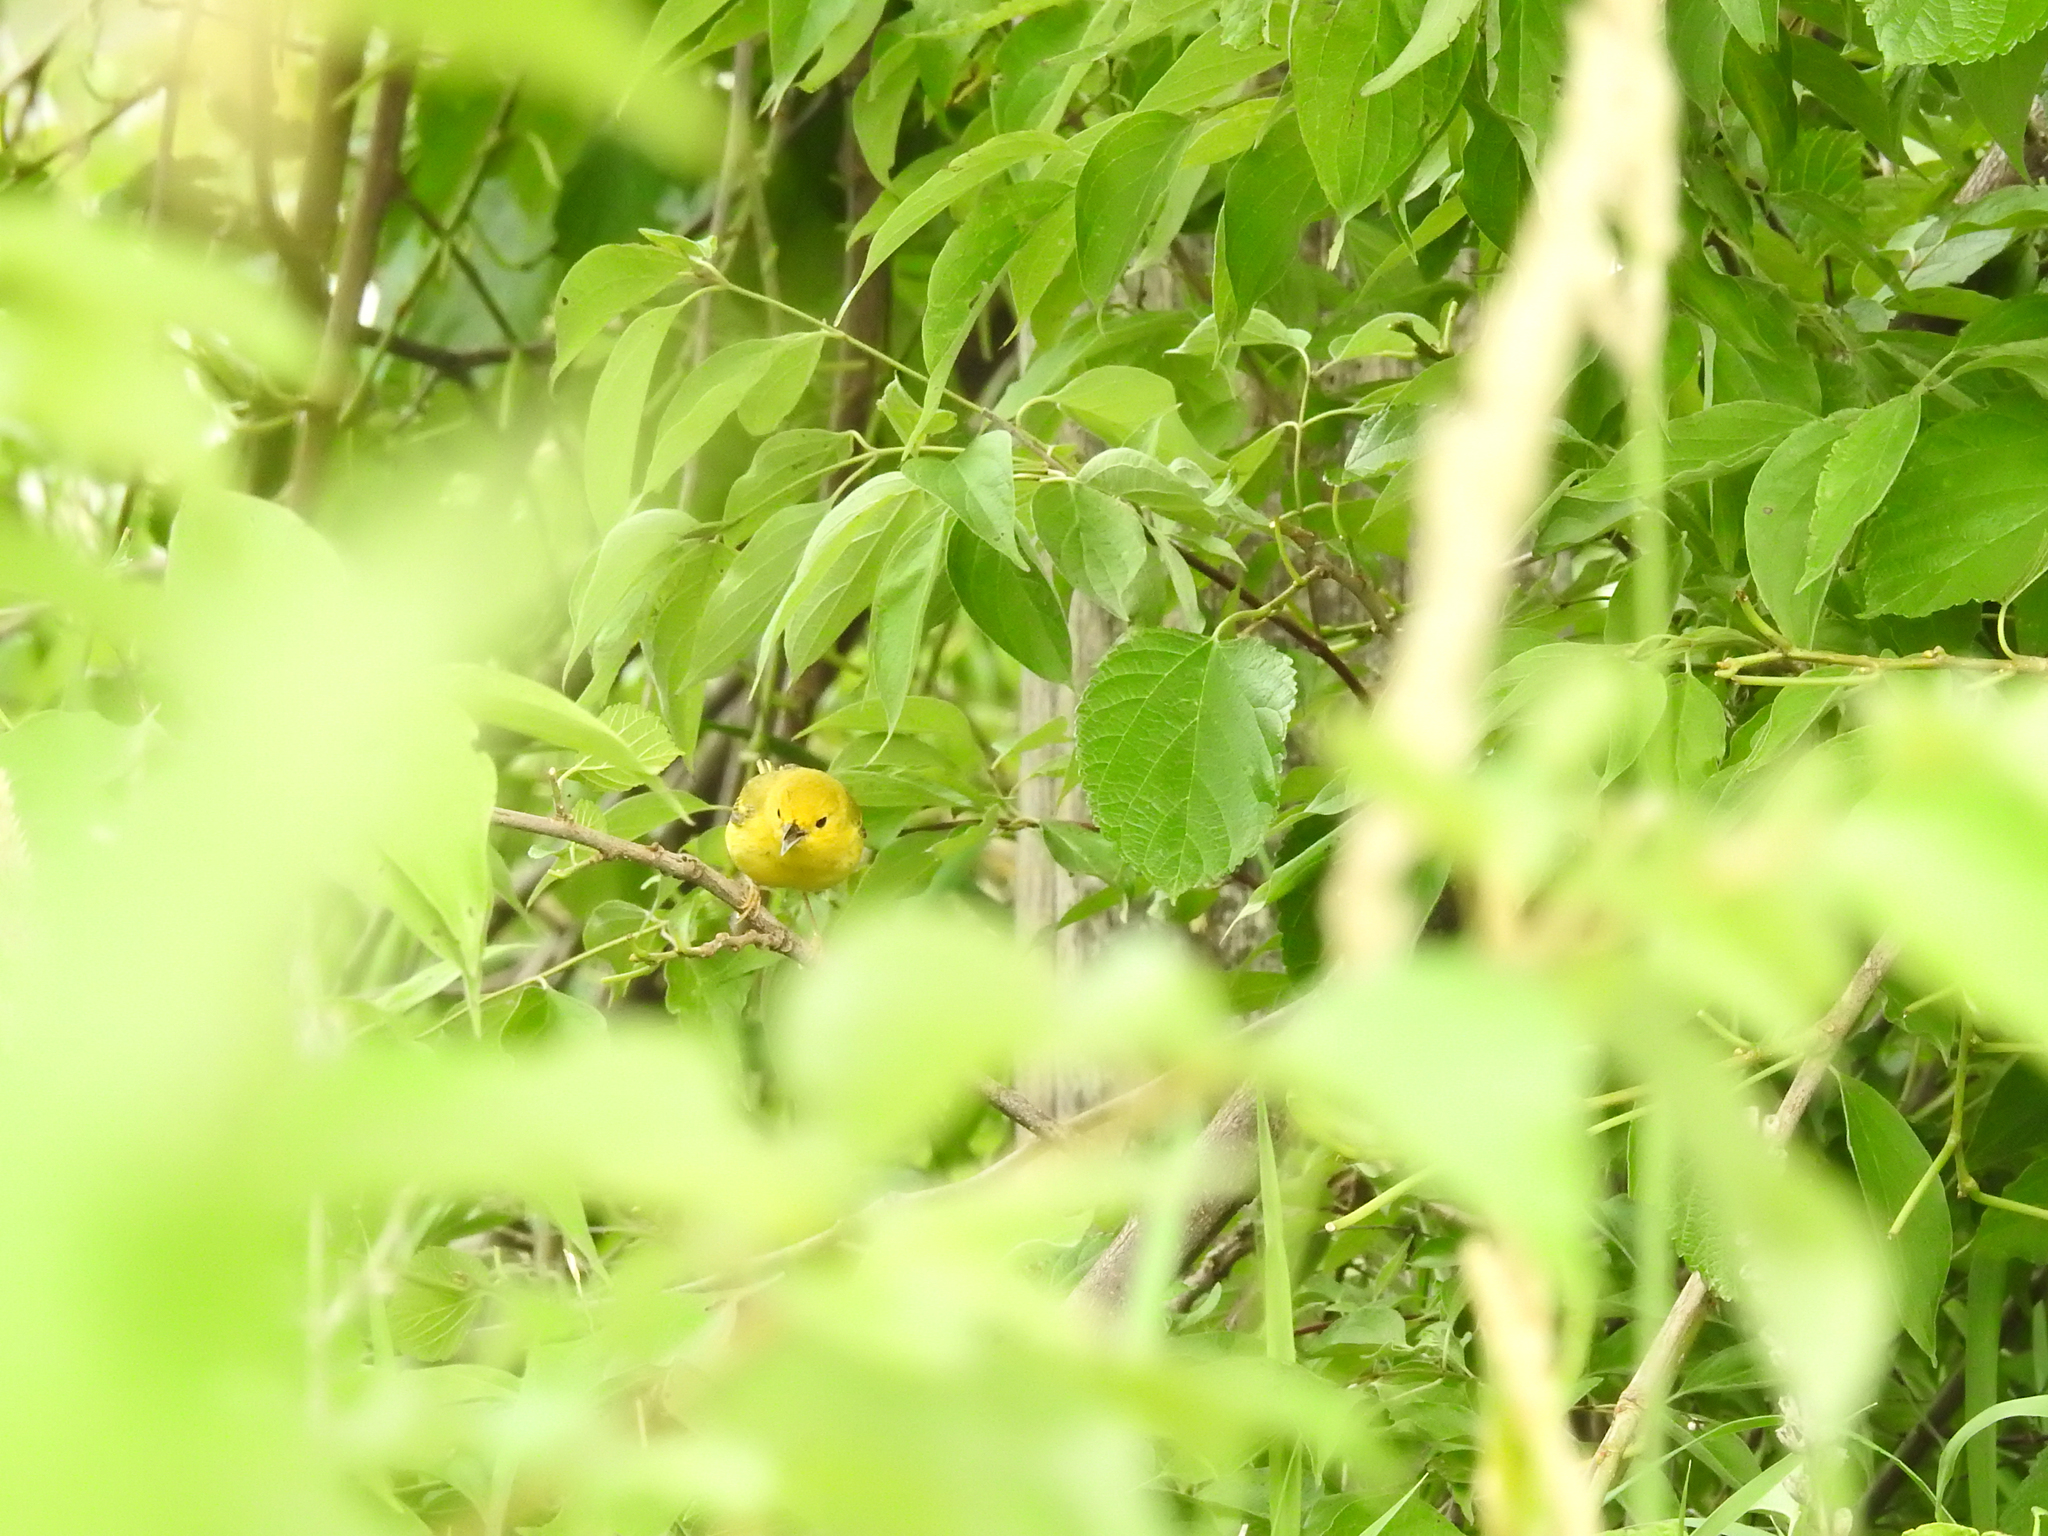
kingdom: Animalia
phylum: Chordata
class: Aves
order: Passeriformes
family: Parulidae
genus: Setophaga
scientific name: Setophaga petechia
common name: Yellow warbler
